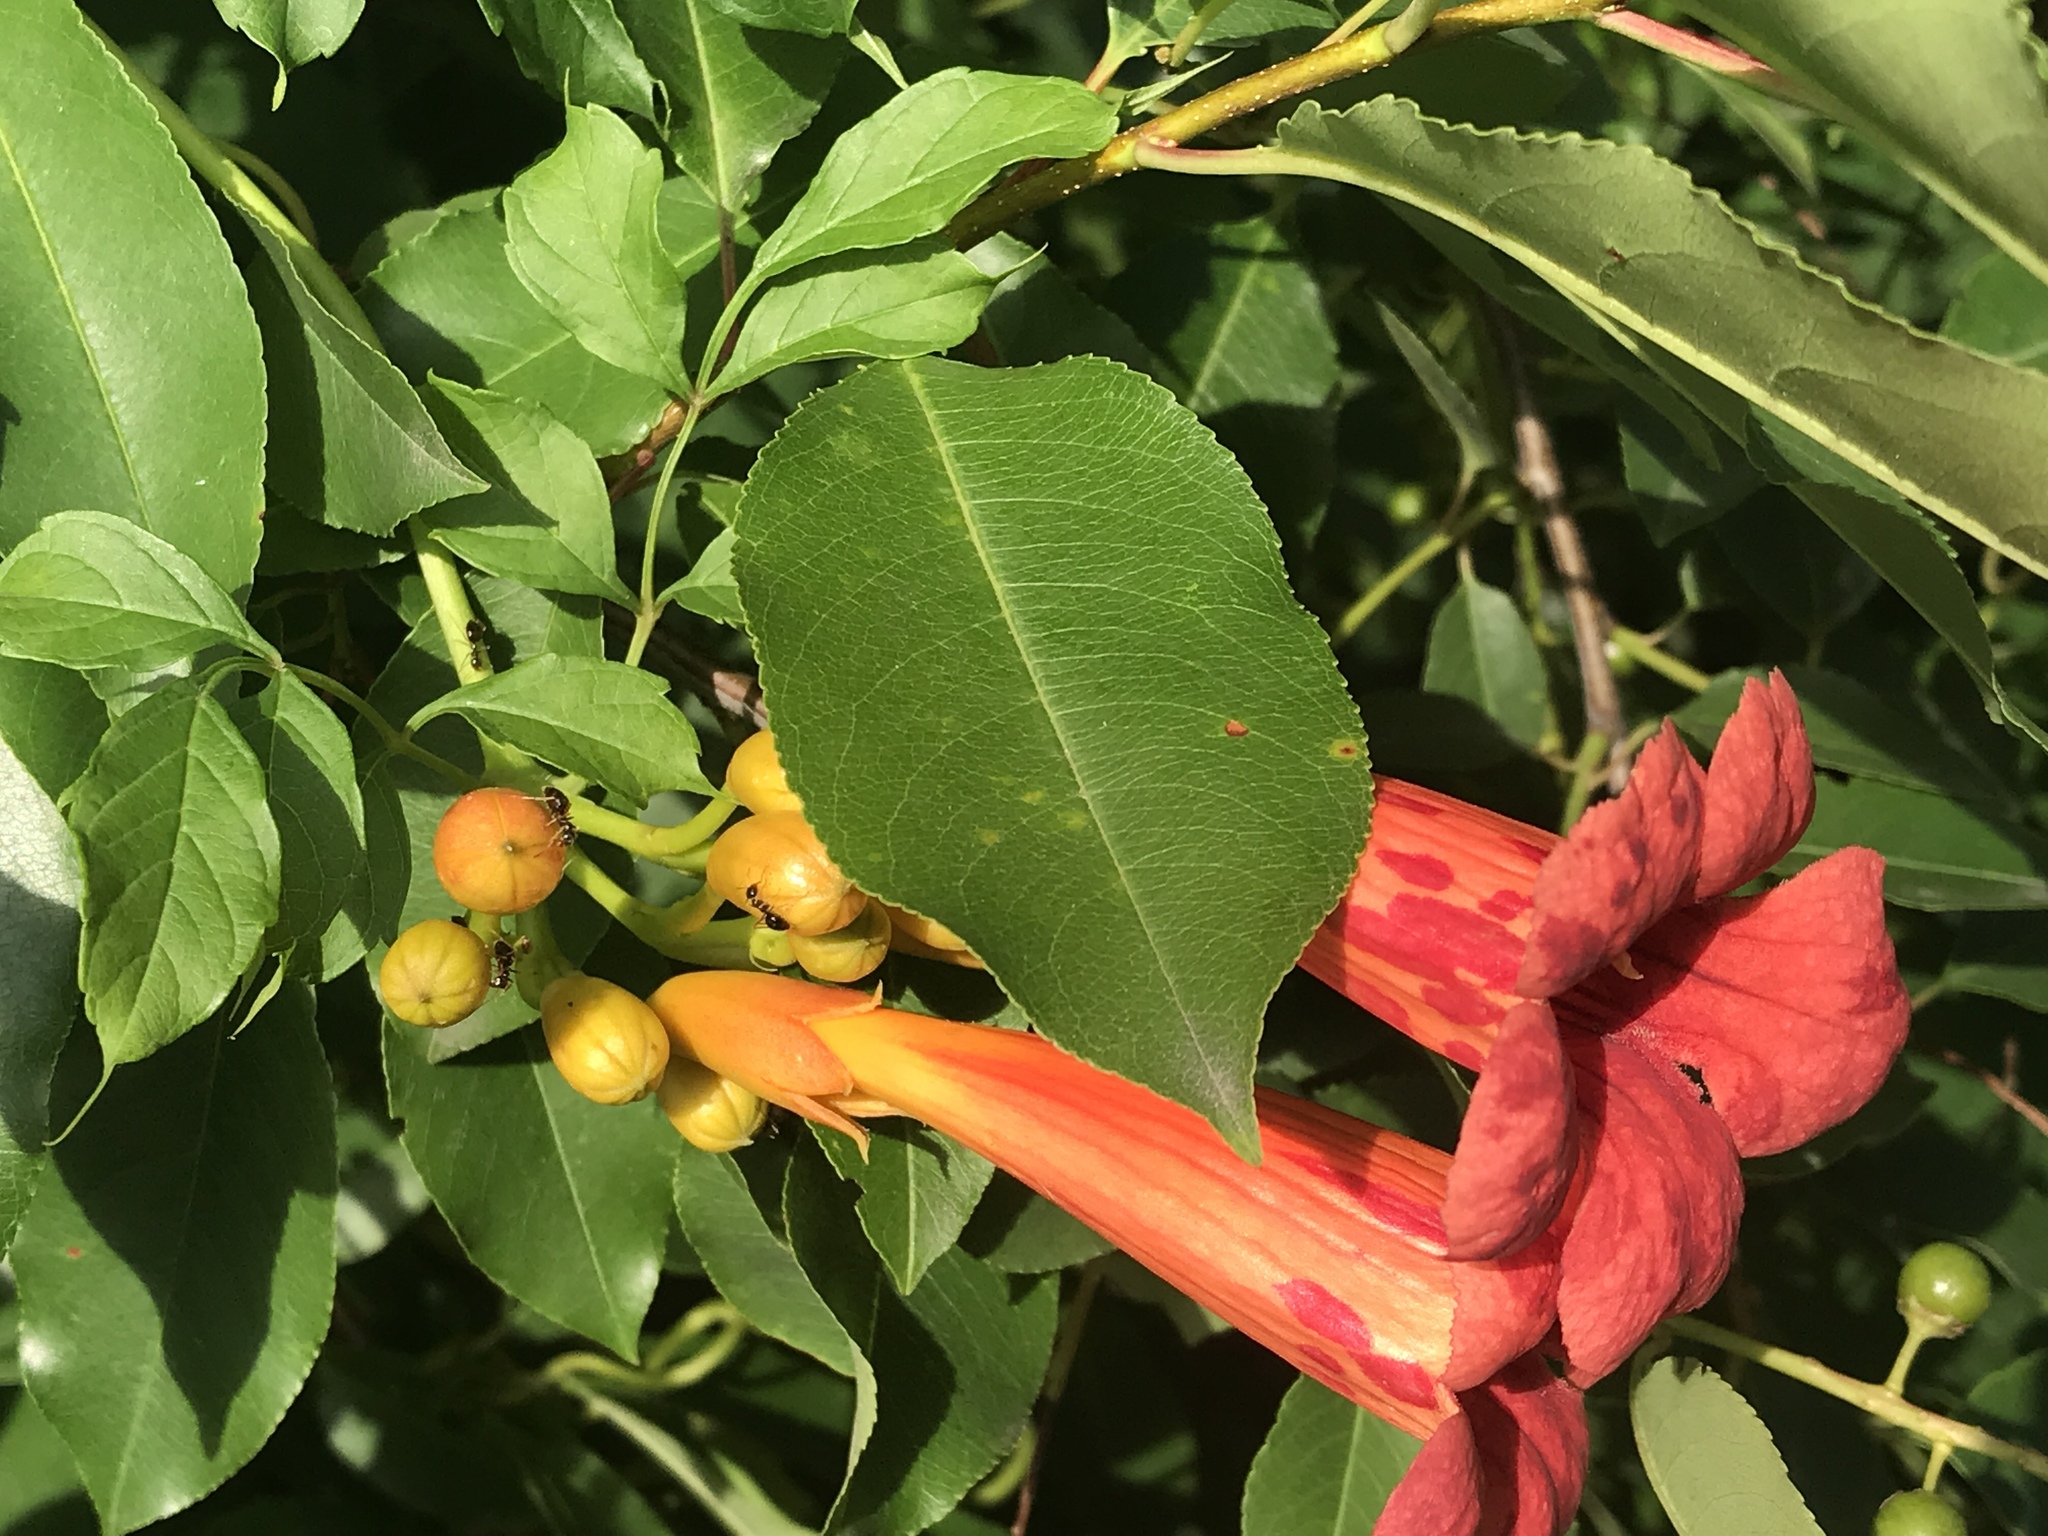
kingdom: Plantae
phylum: Tracheophyta
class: Magnoliopsida
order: Lamiales
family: Bignoniaceae
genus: Campsis
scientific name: Campsis radicans
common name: Trumpet-creeper
